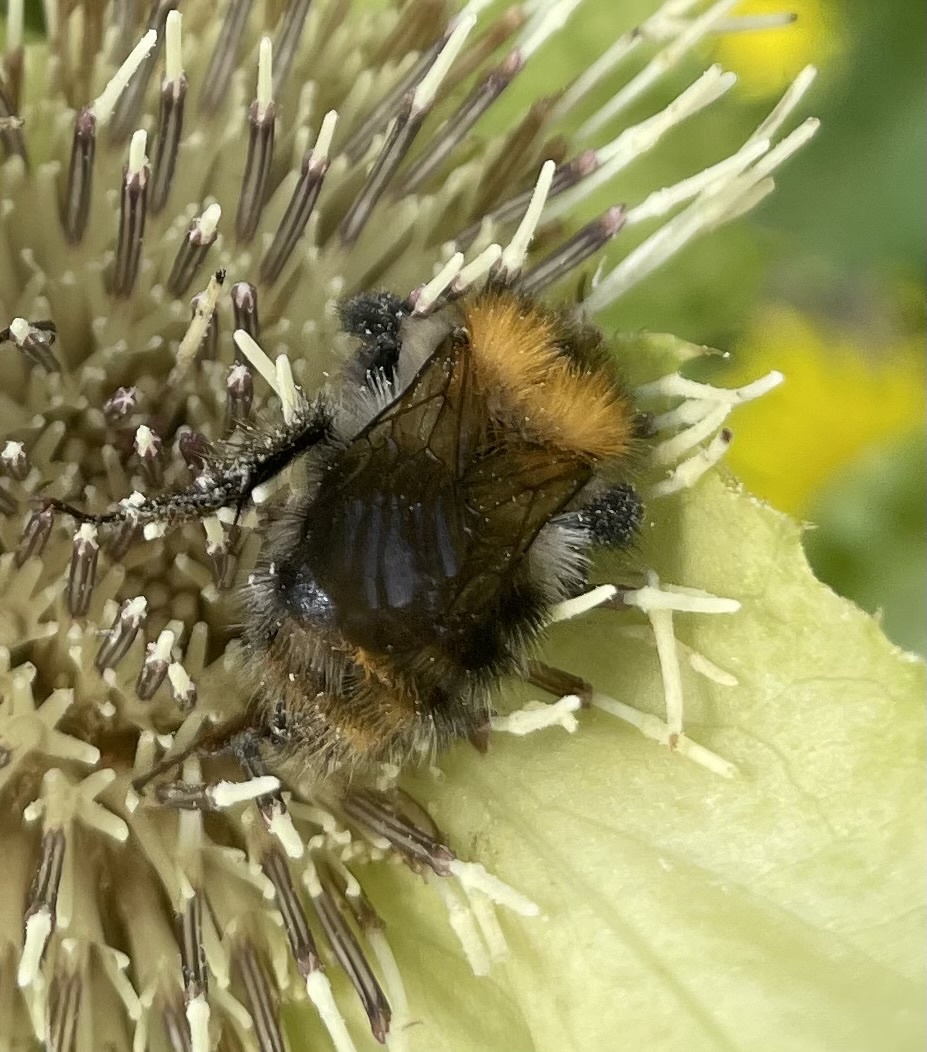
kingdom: Animalia
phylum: Arthropoda
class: Insecta
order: Hymenoptera
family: Apidae
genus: Bombus
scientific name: Bombus pascuorum
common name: Common carder bee
